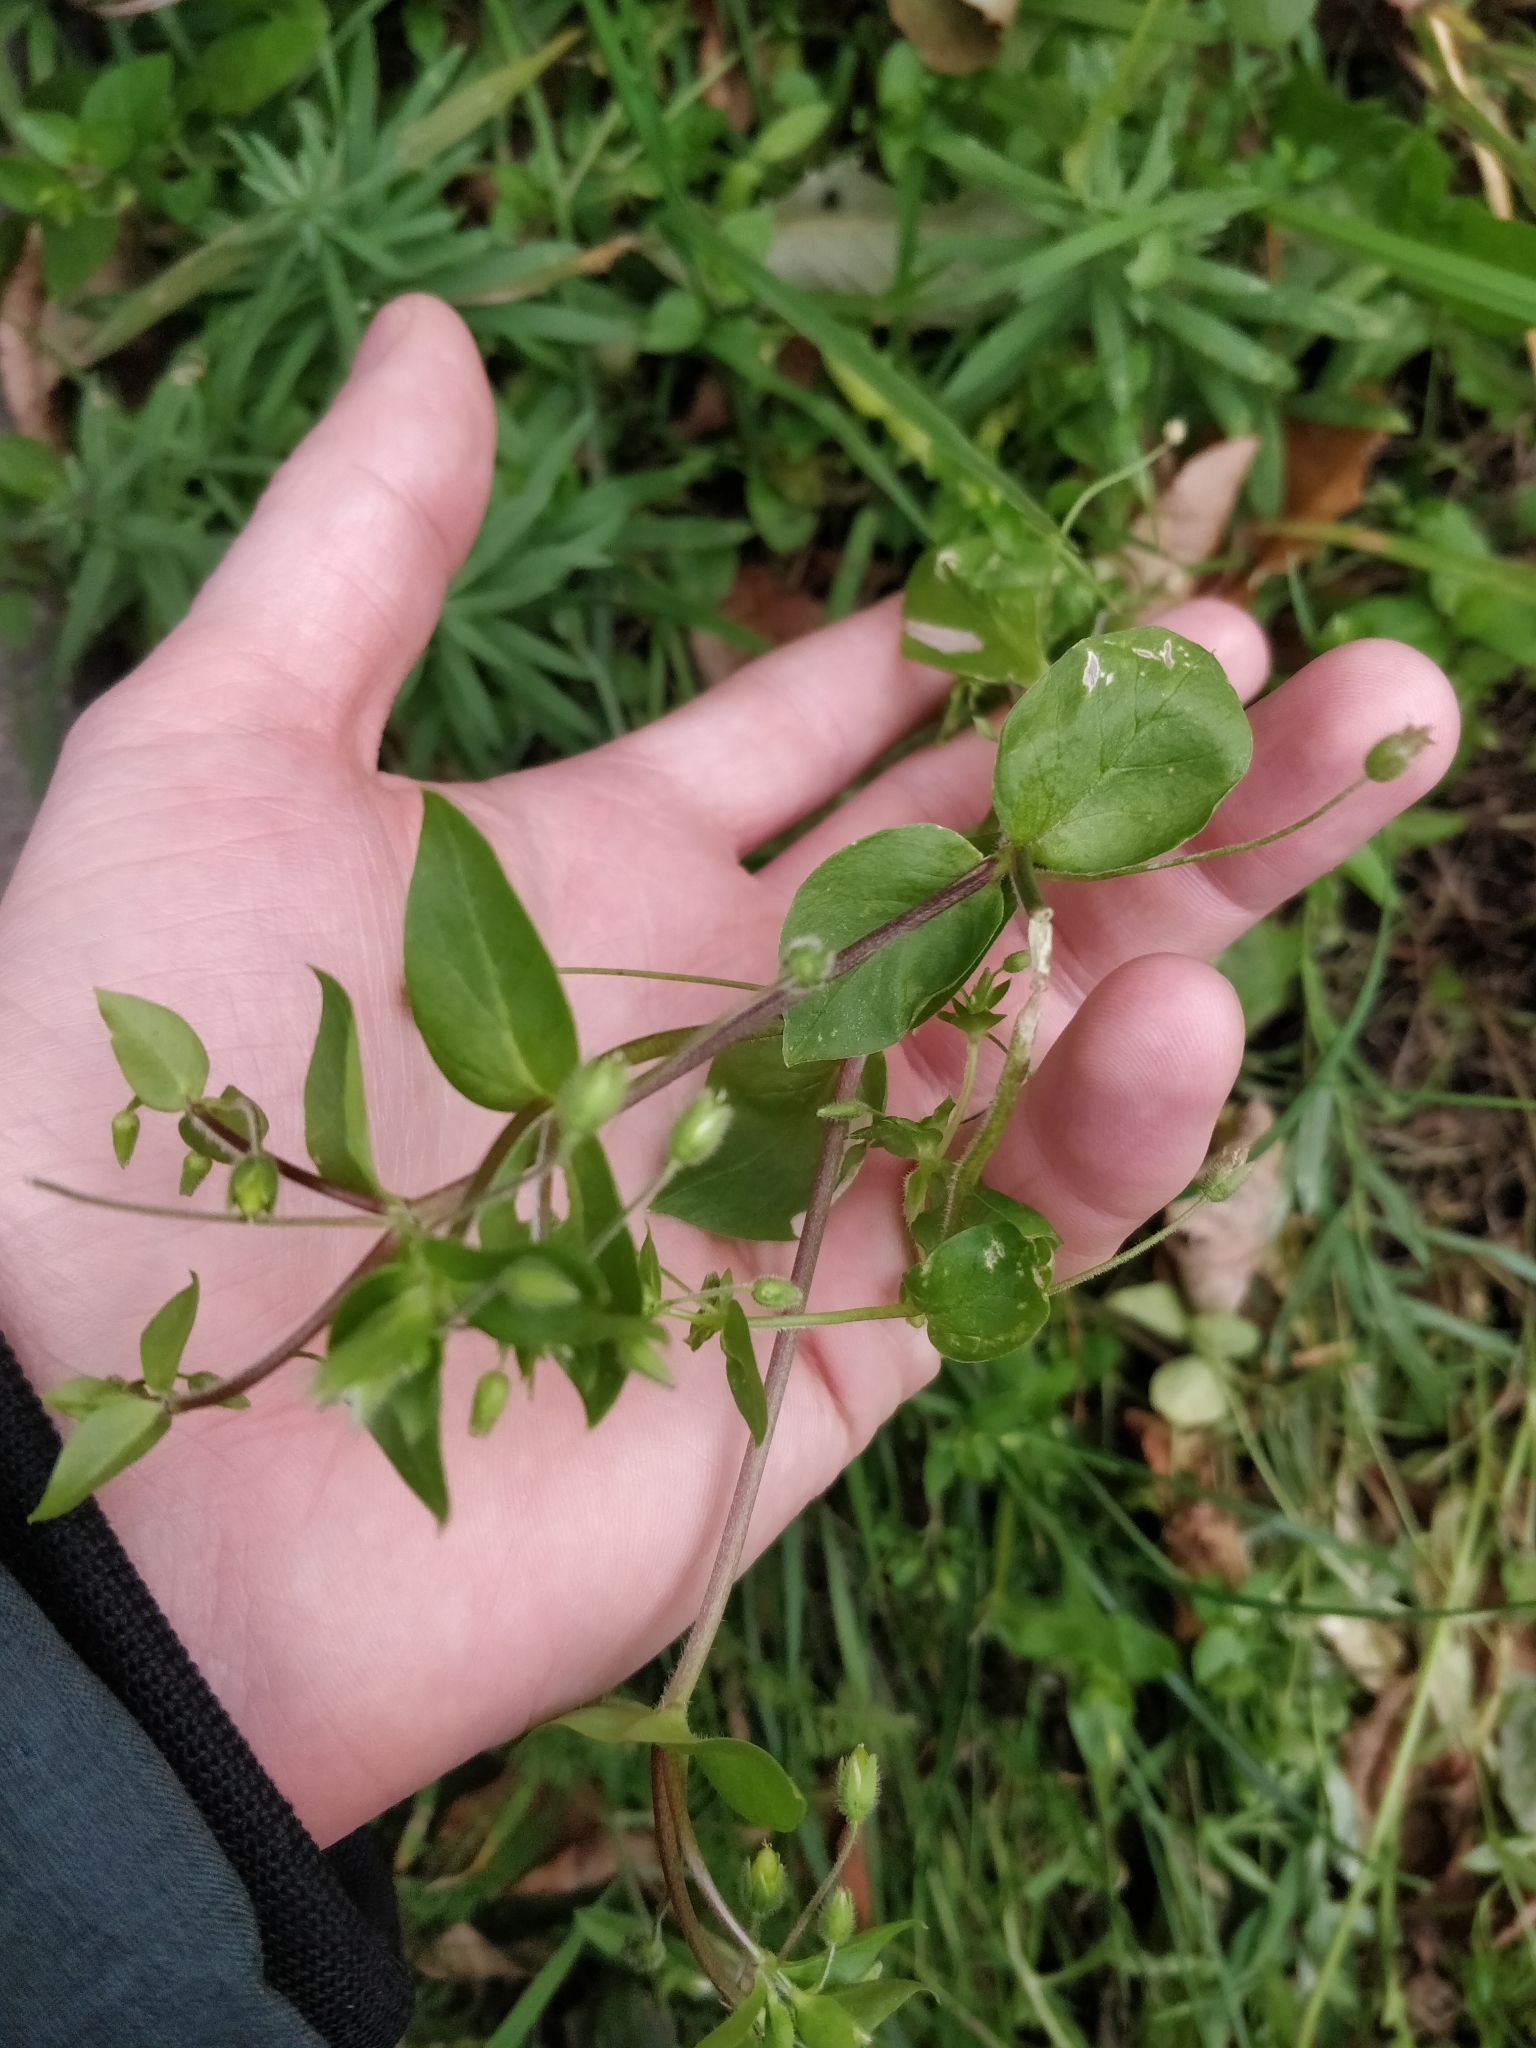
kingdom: Plantae
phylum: Tracheophyta
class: Magnoliopsida
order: Caryophyllales
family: Caryophyllaceae
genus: Stellaria
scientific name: Stellaria media
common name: Common chickweed
